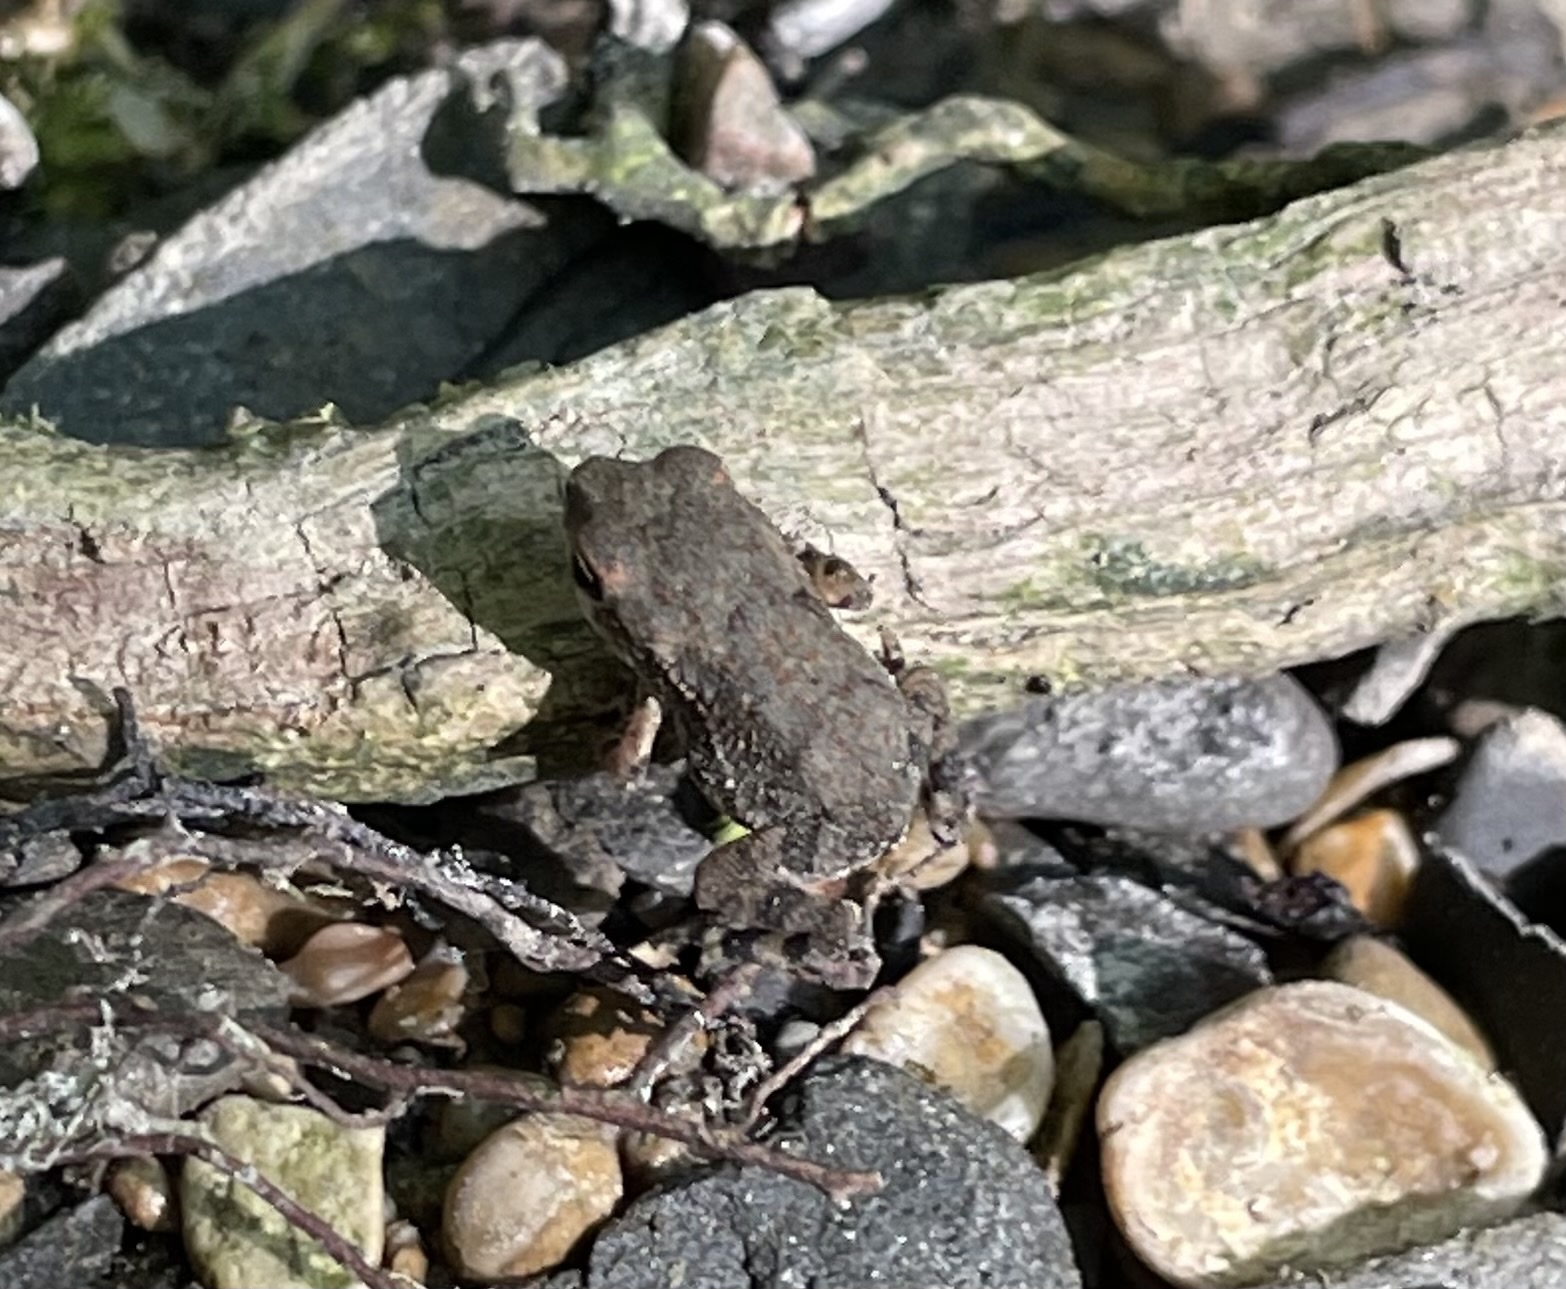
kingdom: Animalia
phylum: Chordata
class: Amphibia
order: Anura
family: Bufonidae
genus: Incilius
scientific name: Incilius nebulifer
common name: Gulf coast toad
